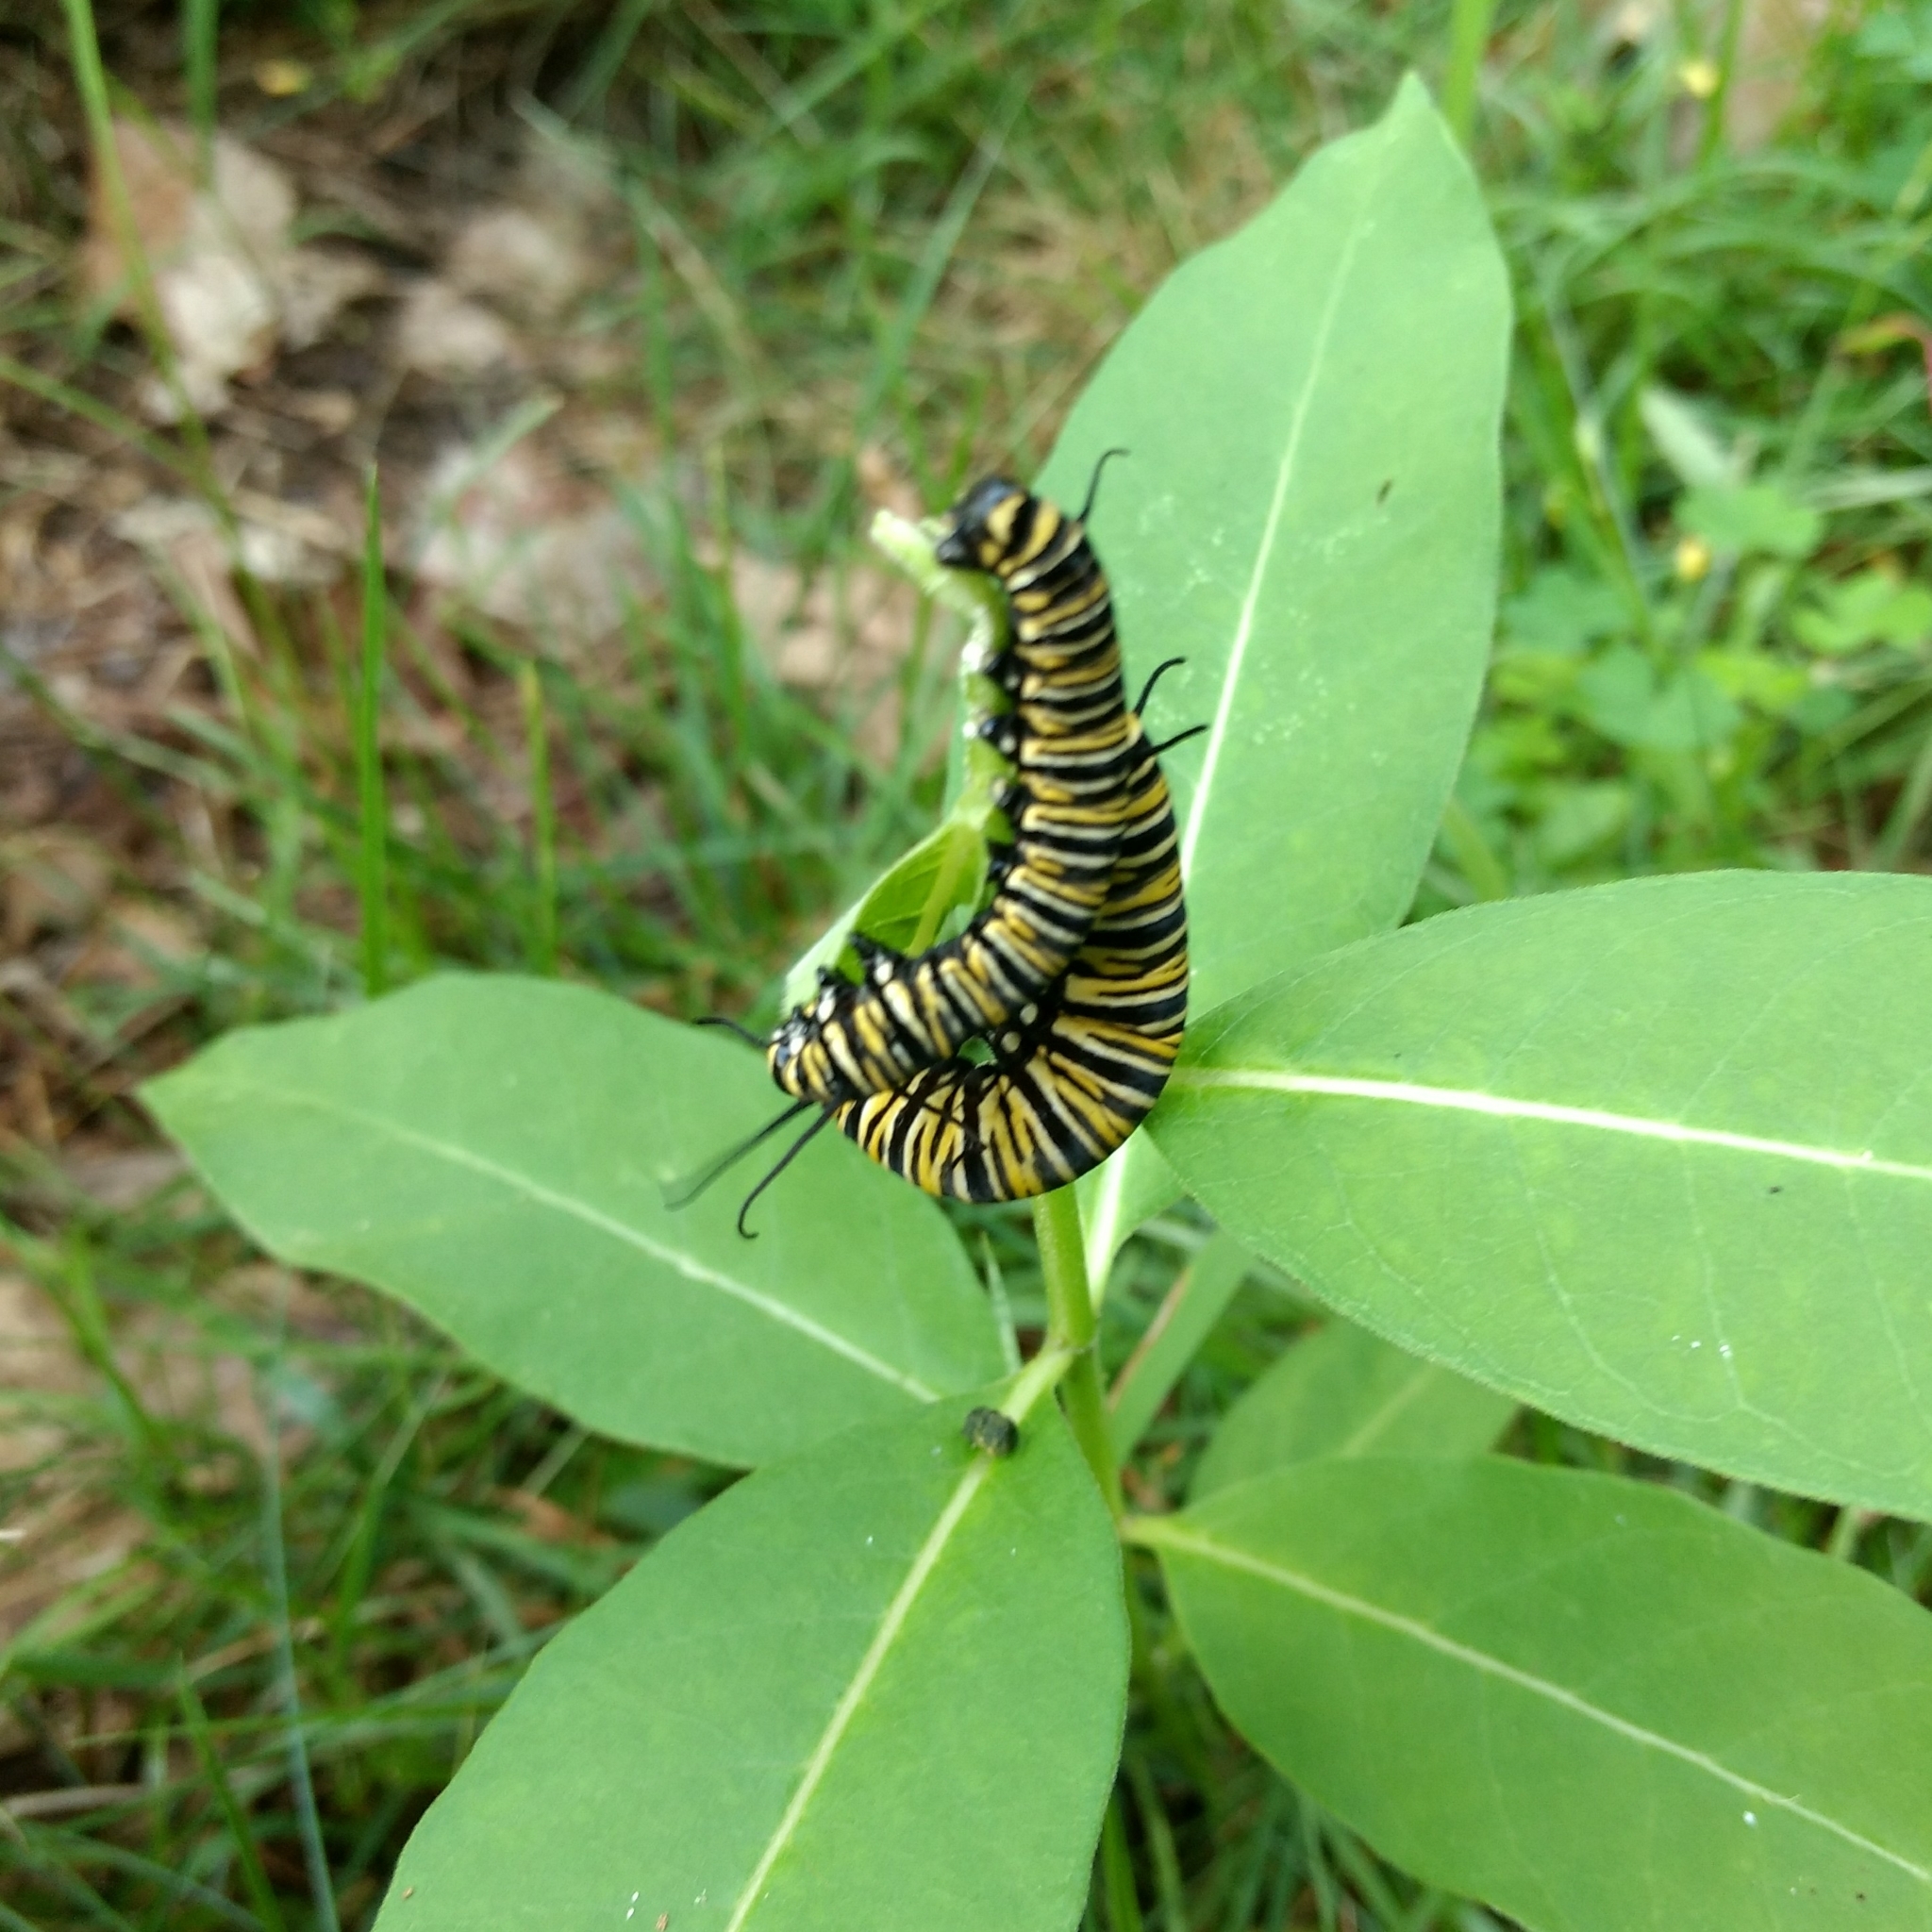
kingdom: Animalia
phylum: Arthropoda
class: Insecta
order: Lepidoptera
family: Nymphalidae
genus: Danaus
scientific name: Danaus plexippus
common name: Monarch
